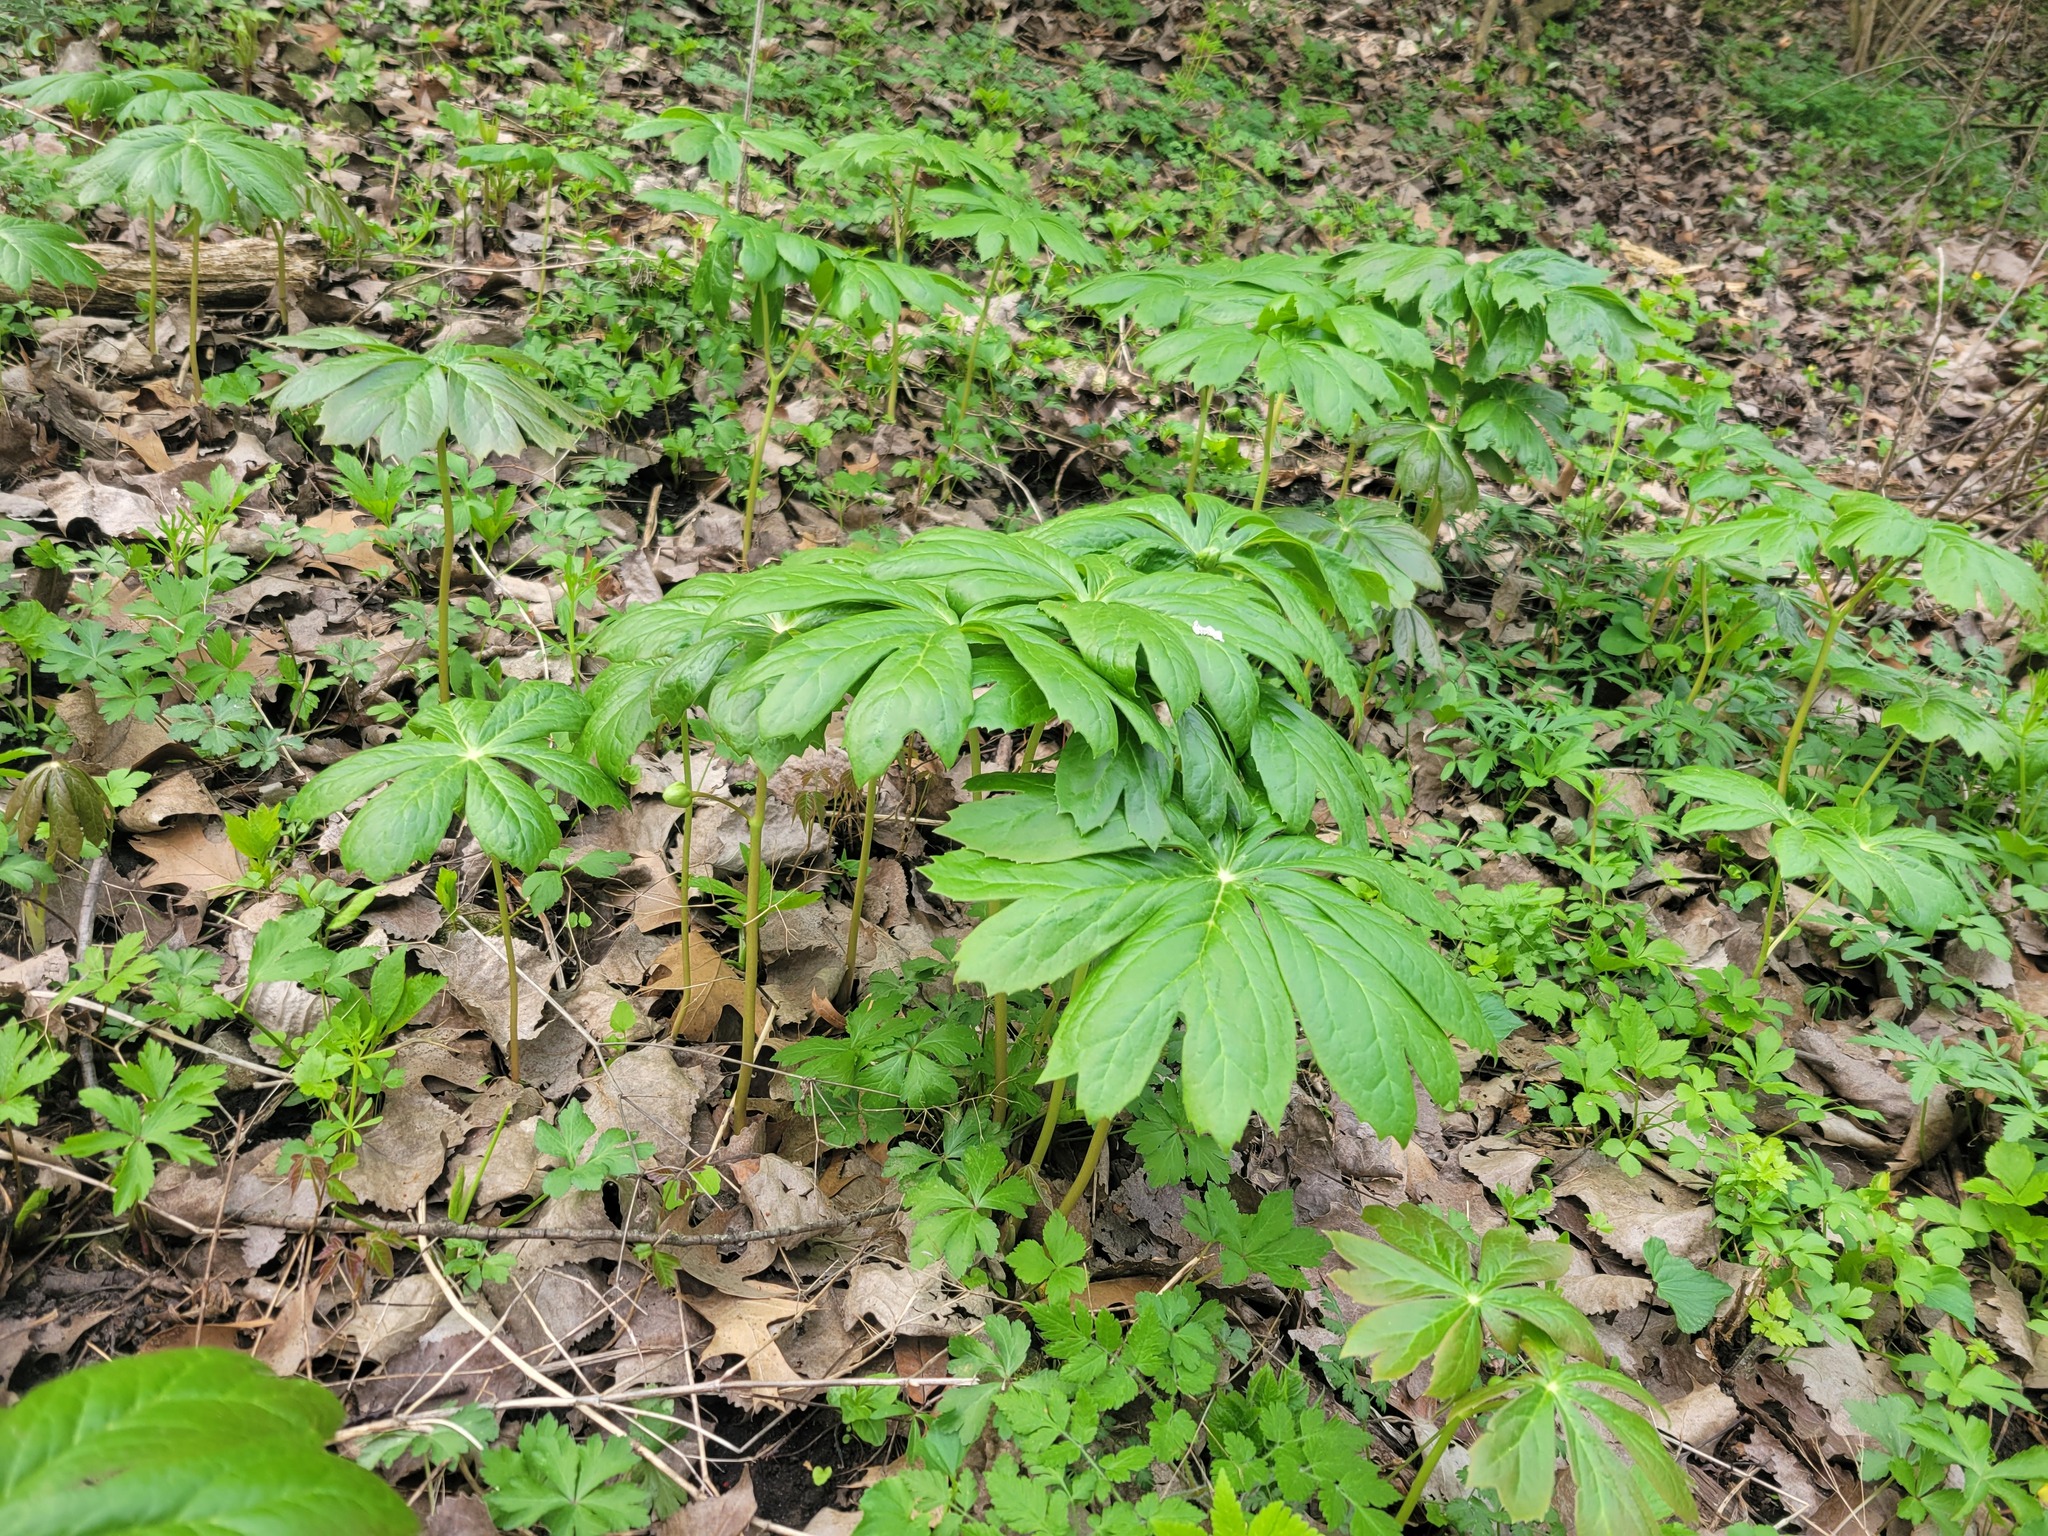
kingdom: Plantae
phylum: Tracheophyta
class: Magnoliopsida
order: Ranunculales
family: Berberidaceae
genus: Podophyllum
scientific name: Podophyllum peltatum
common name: Wild mandrake
